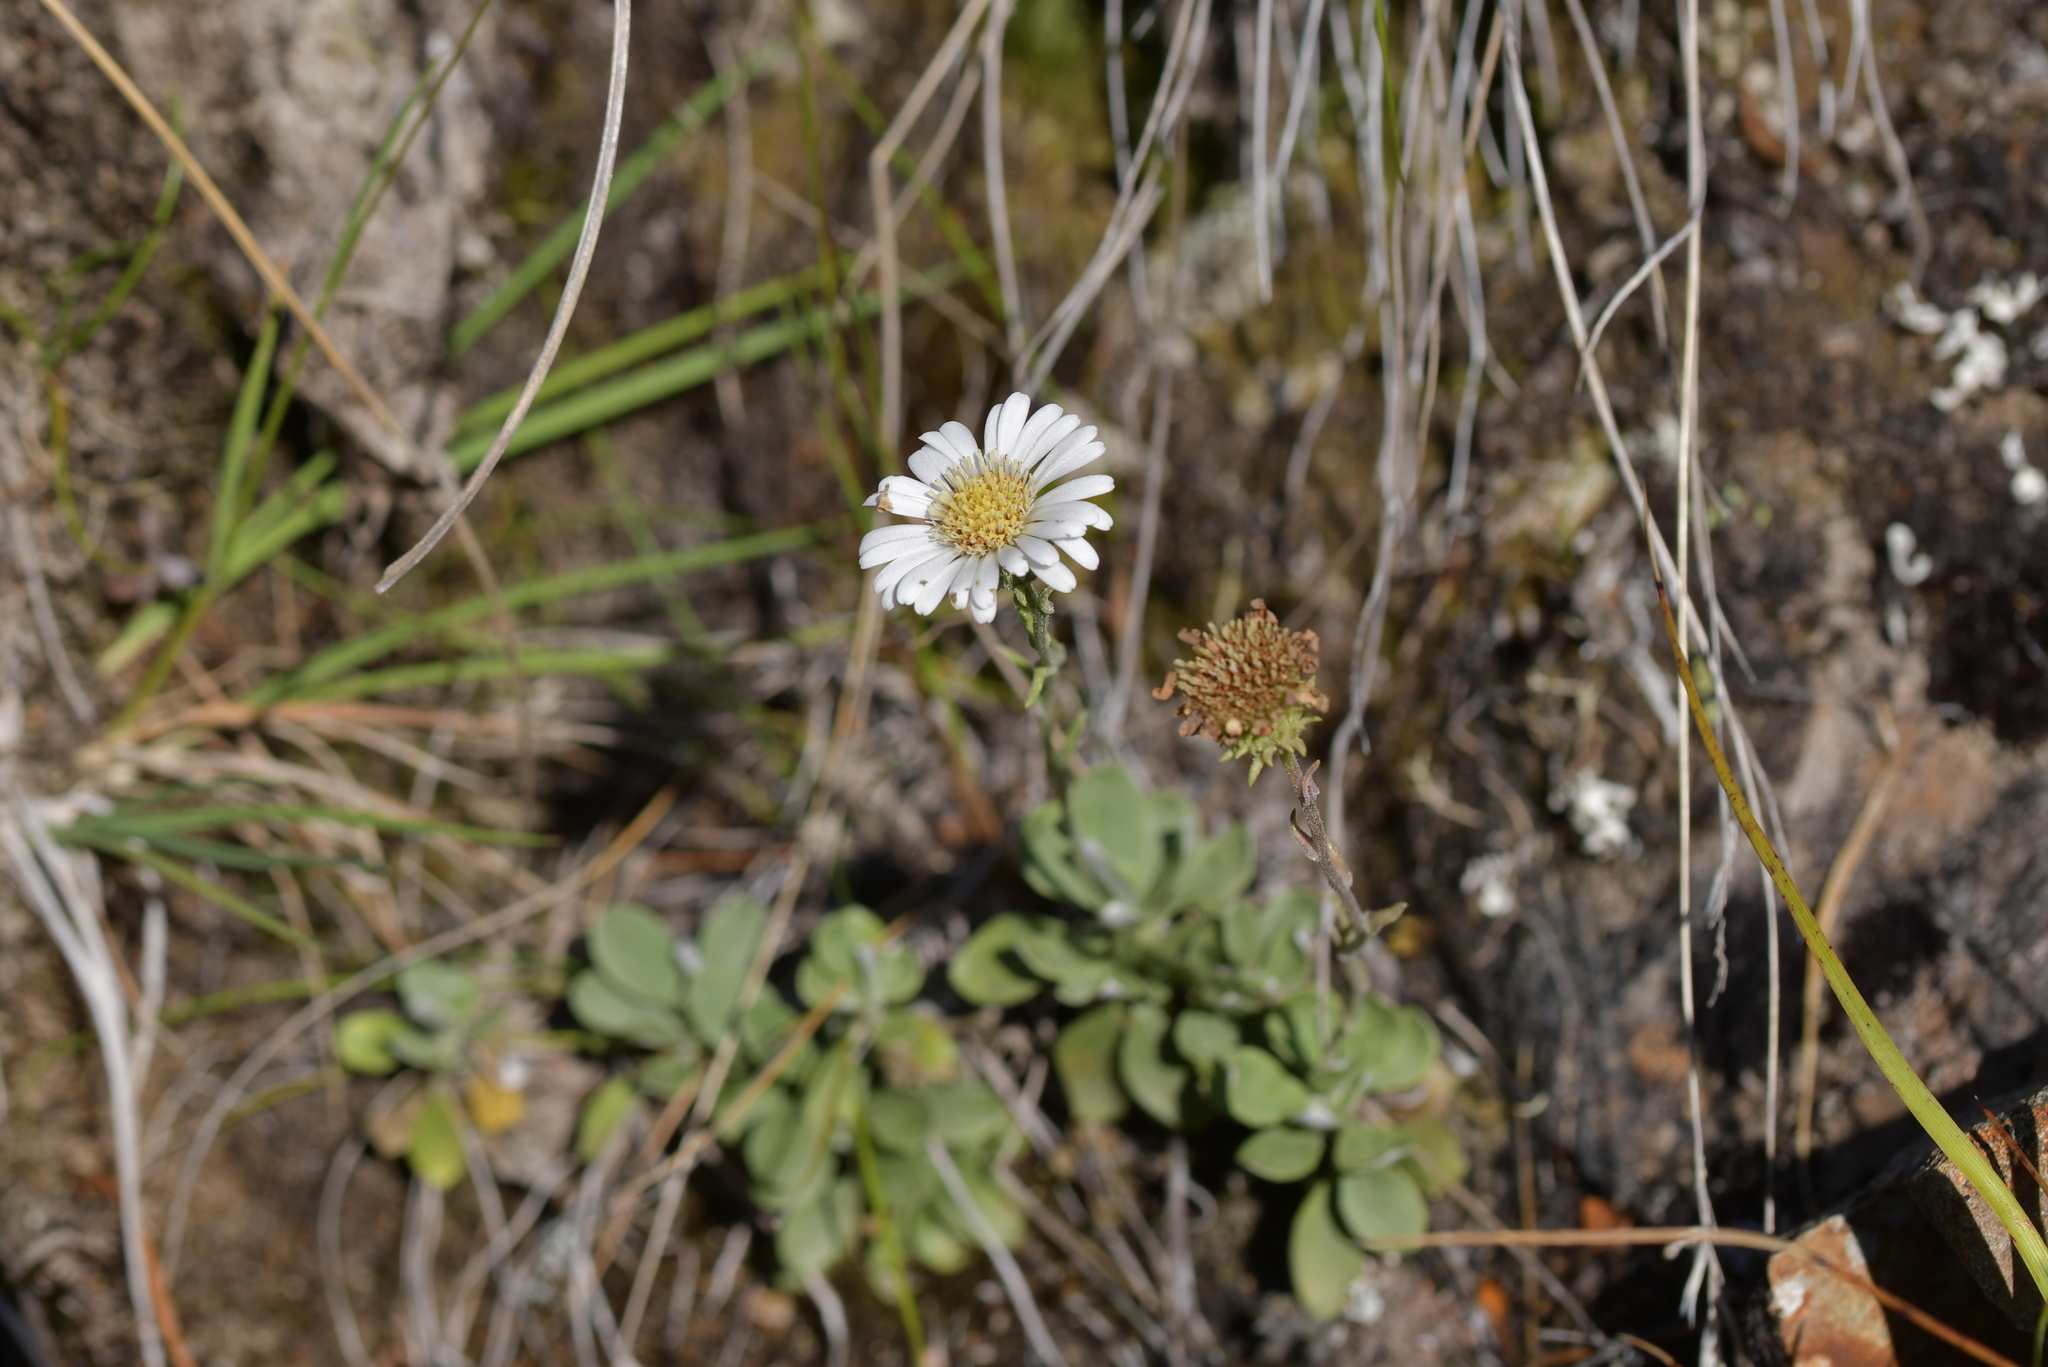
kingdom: Plantae
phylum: Tracheophyta
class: Magnoliopsida
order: Asterales
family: Asteraceae
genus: Celmisia
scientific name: Celmisia discolor
